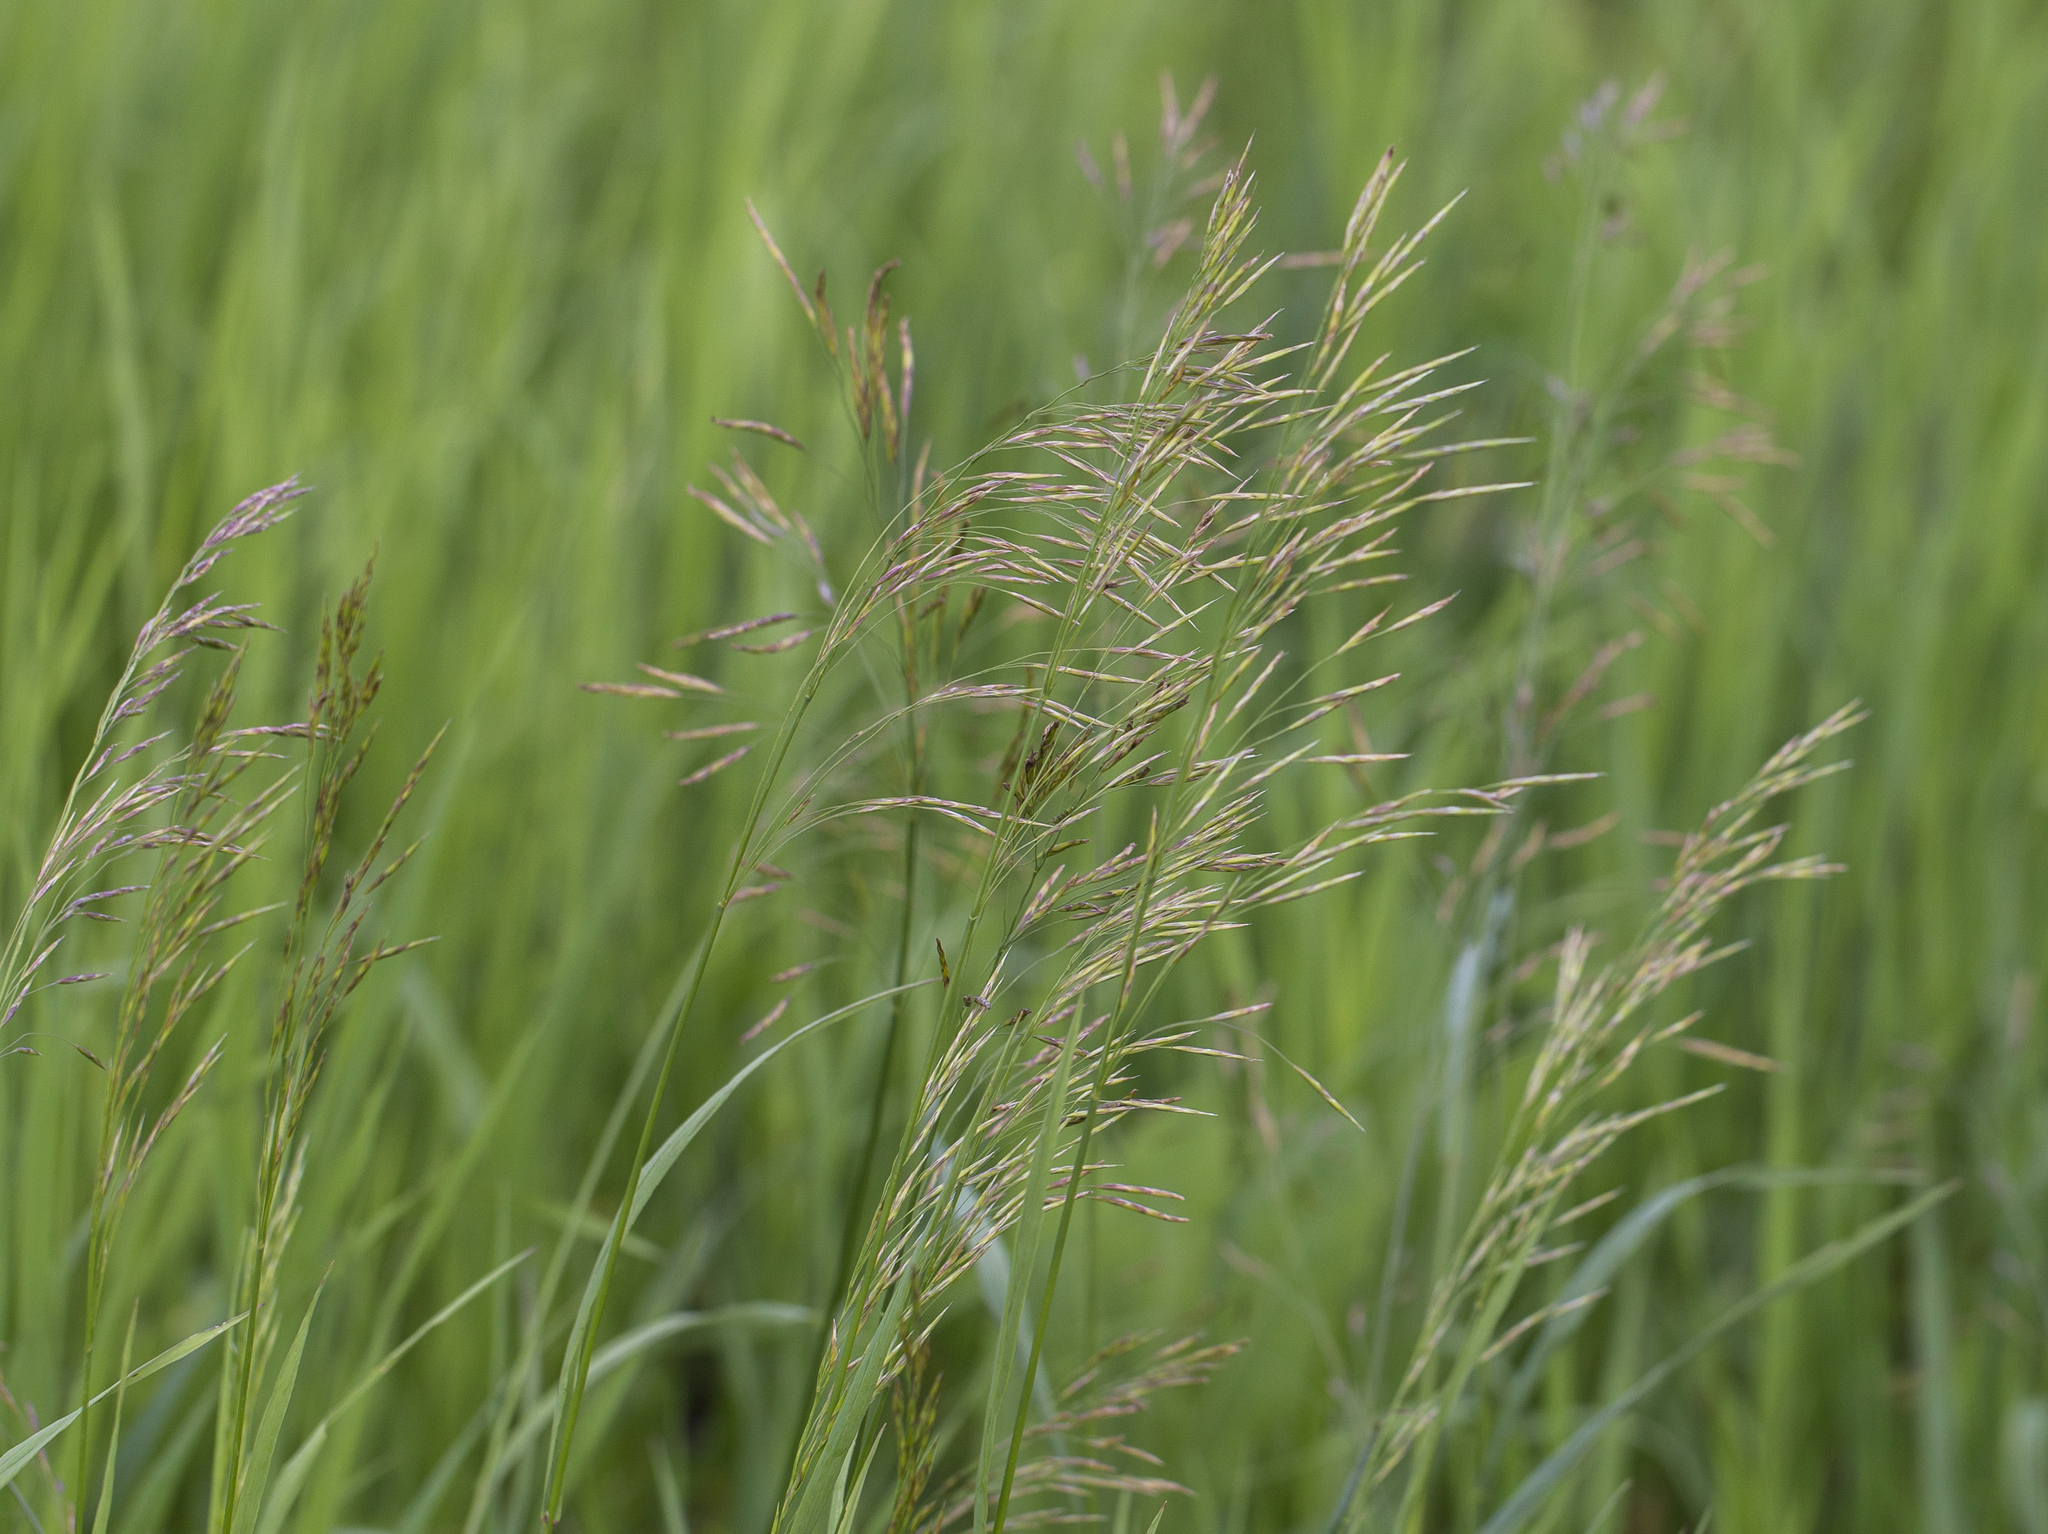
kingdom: Plantae
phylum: Tracheophyta
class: Liliopsida
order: Poales
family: Poaceae
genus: Bromus
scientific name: Bromus inermis
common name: Smooth brome
